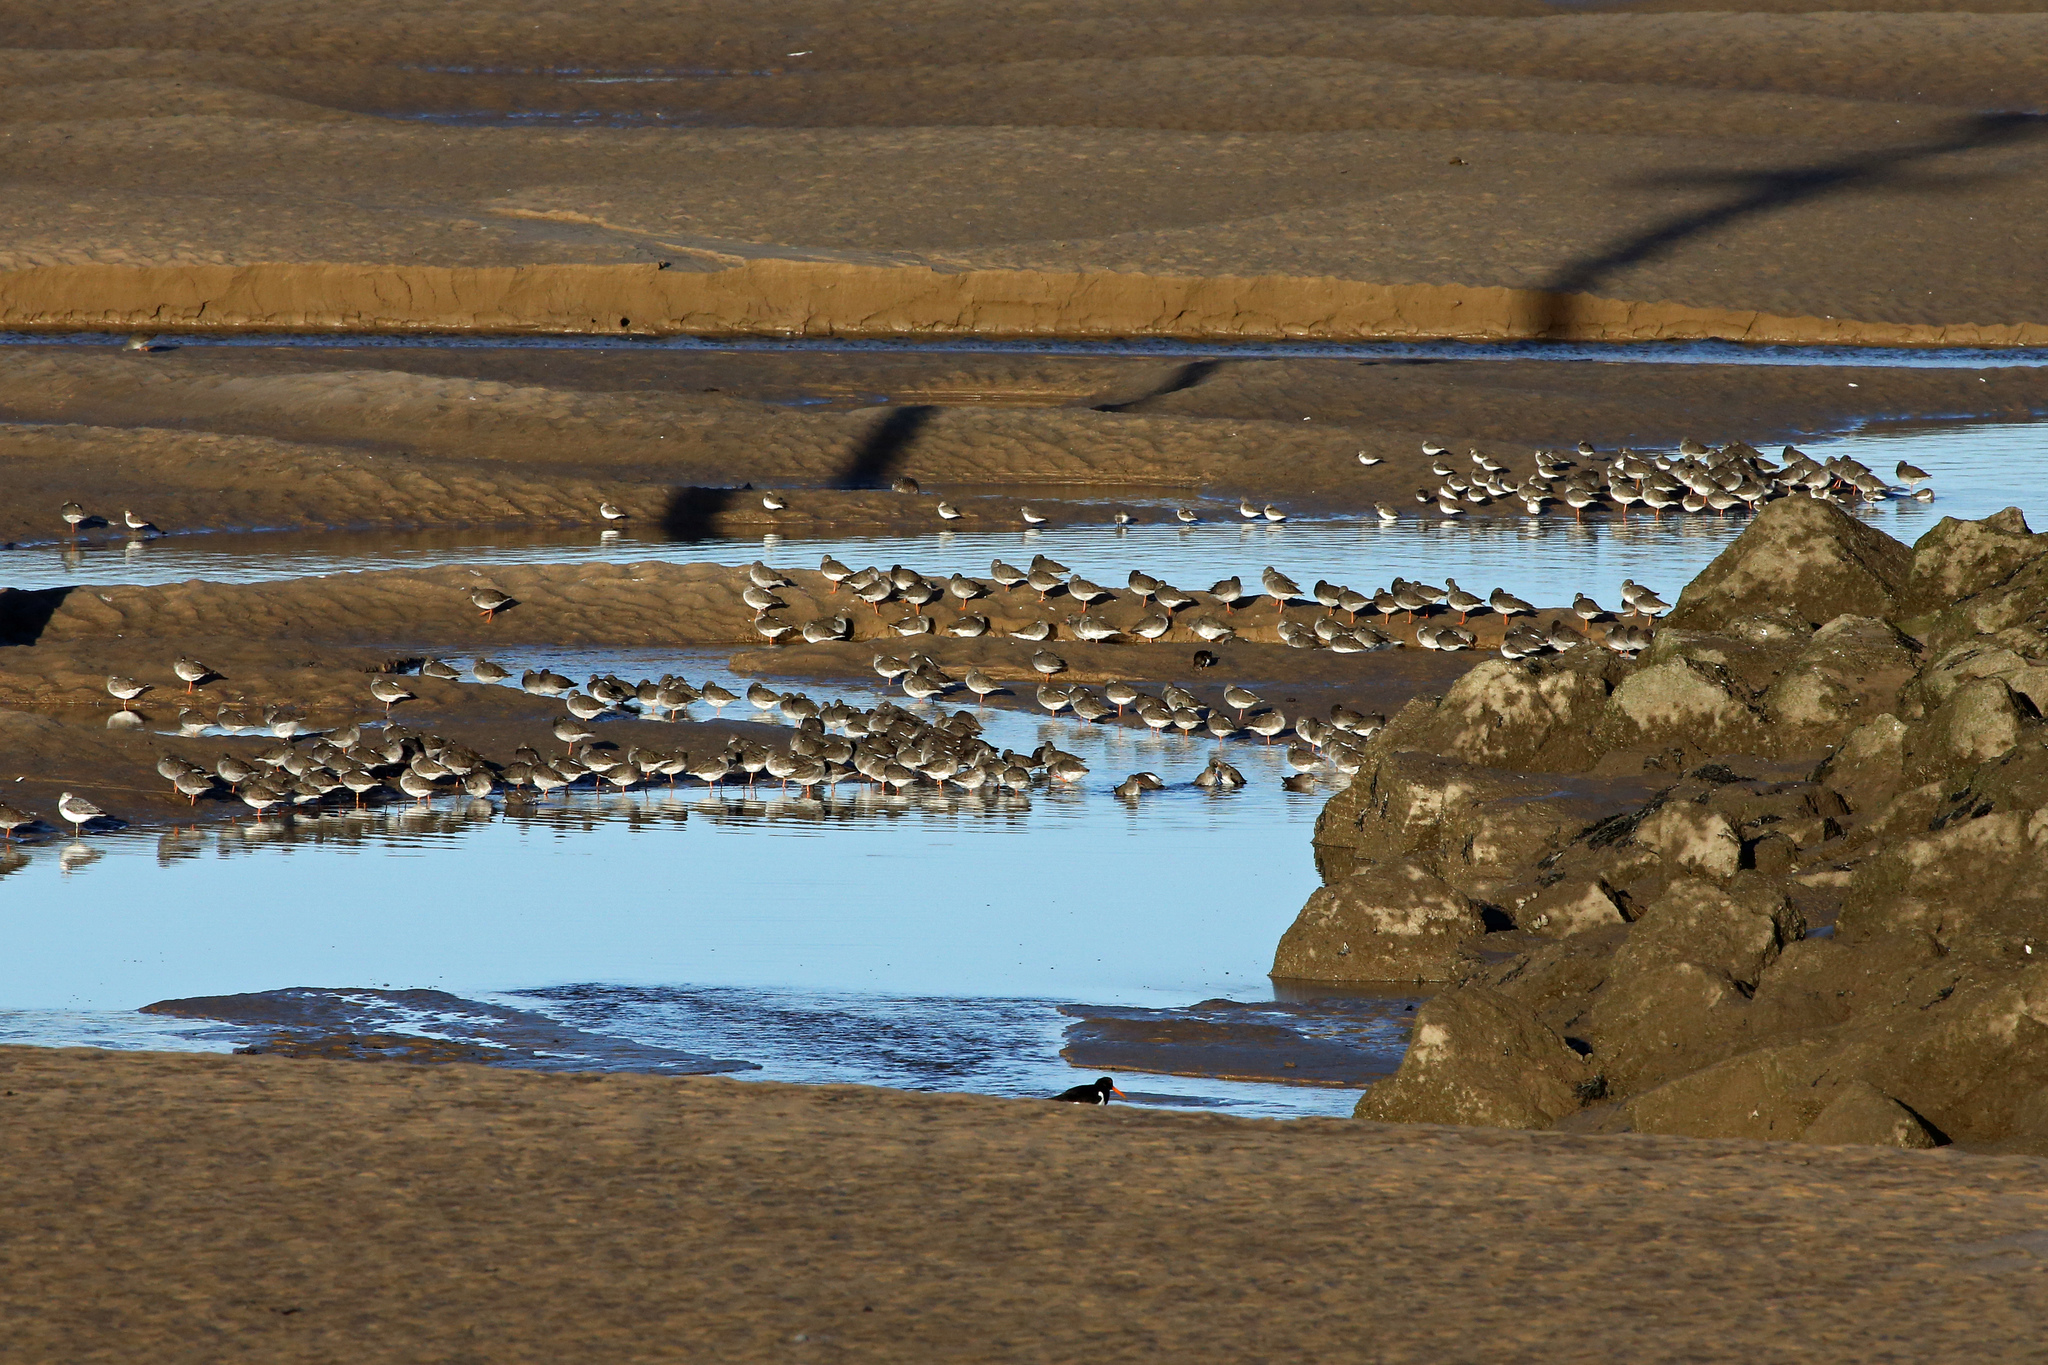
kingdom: Animalia
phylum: Chordata
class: Aves
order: Charadriiformes
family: Scolopacidae
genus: Tringa
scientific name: Tringa totanus
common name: Common redshank
